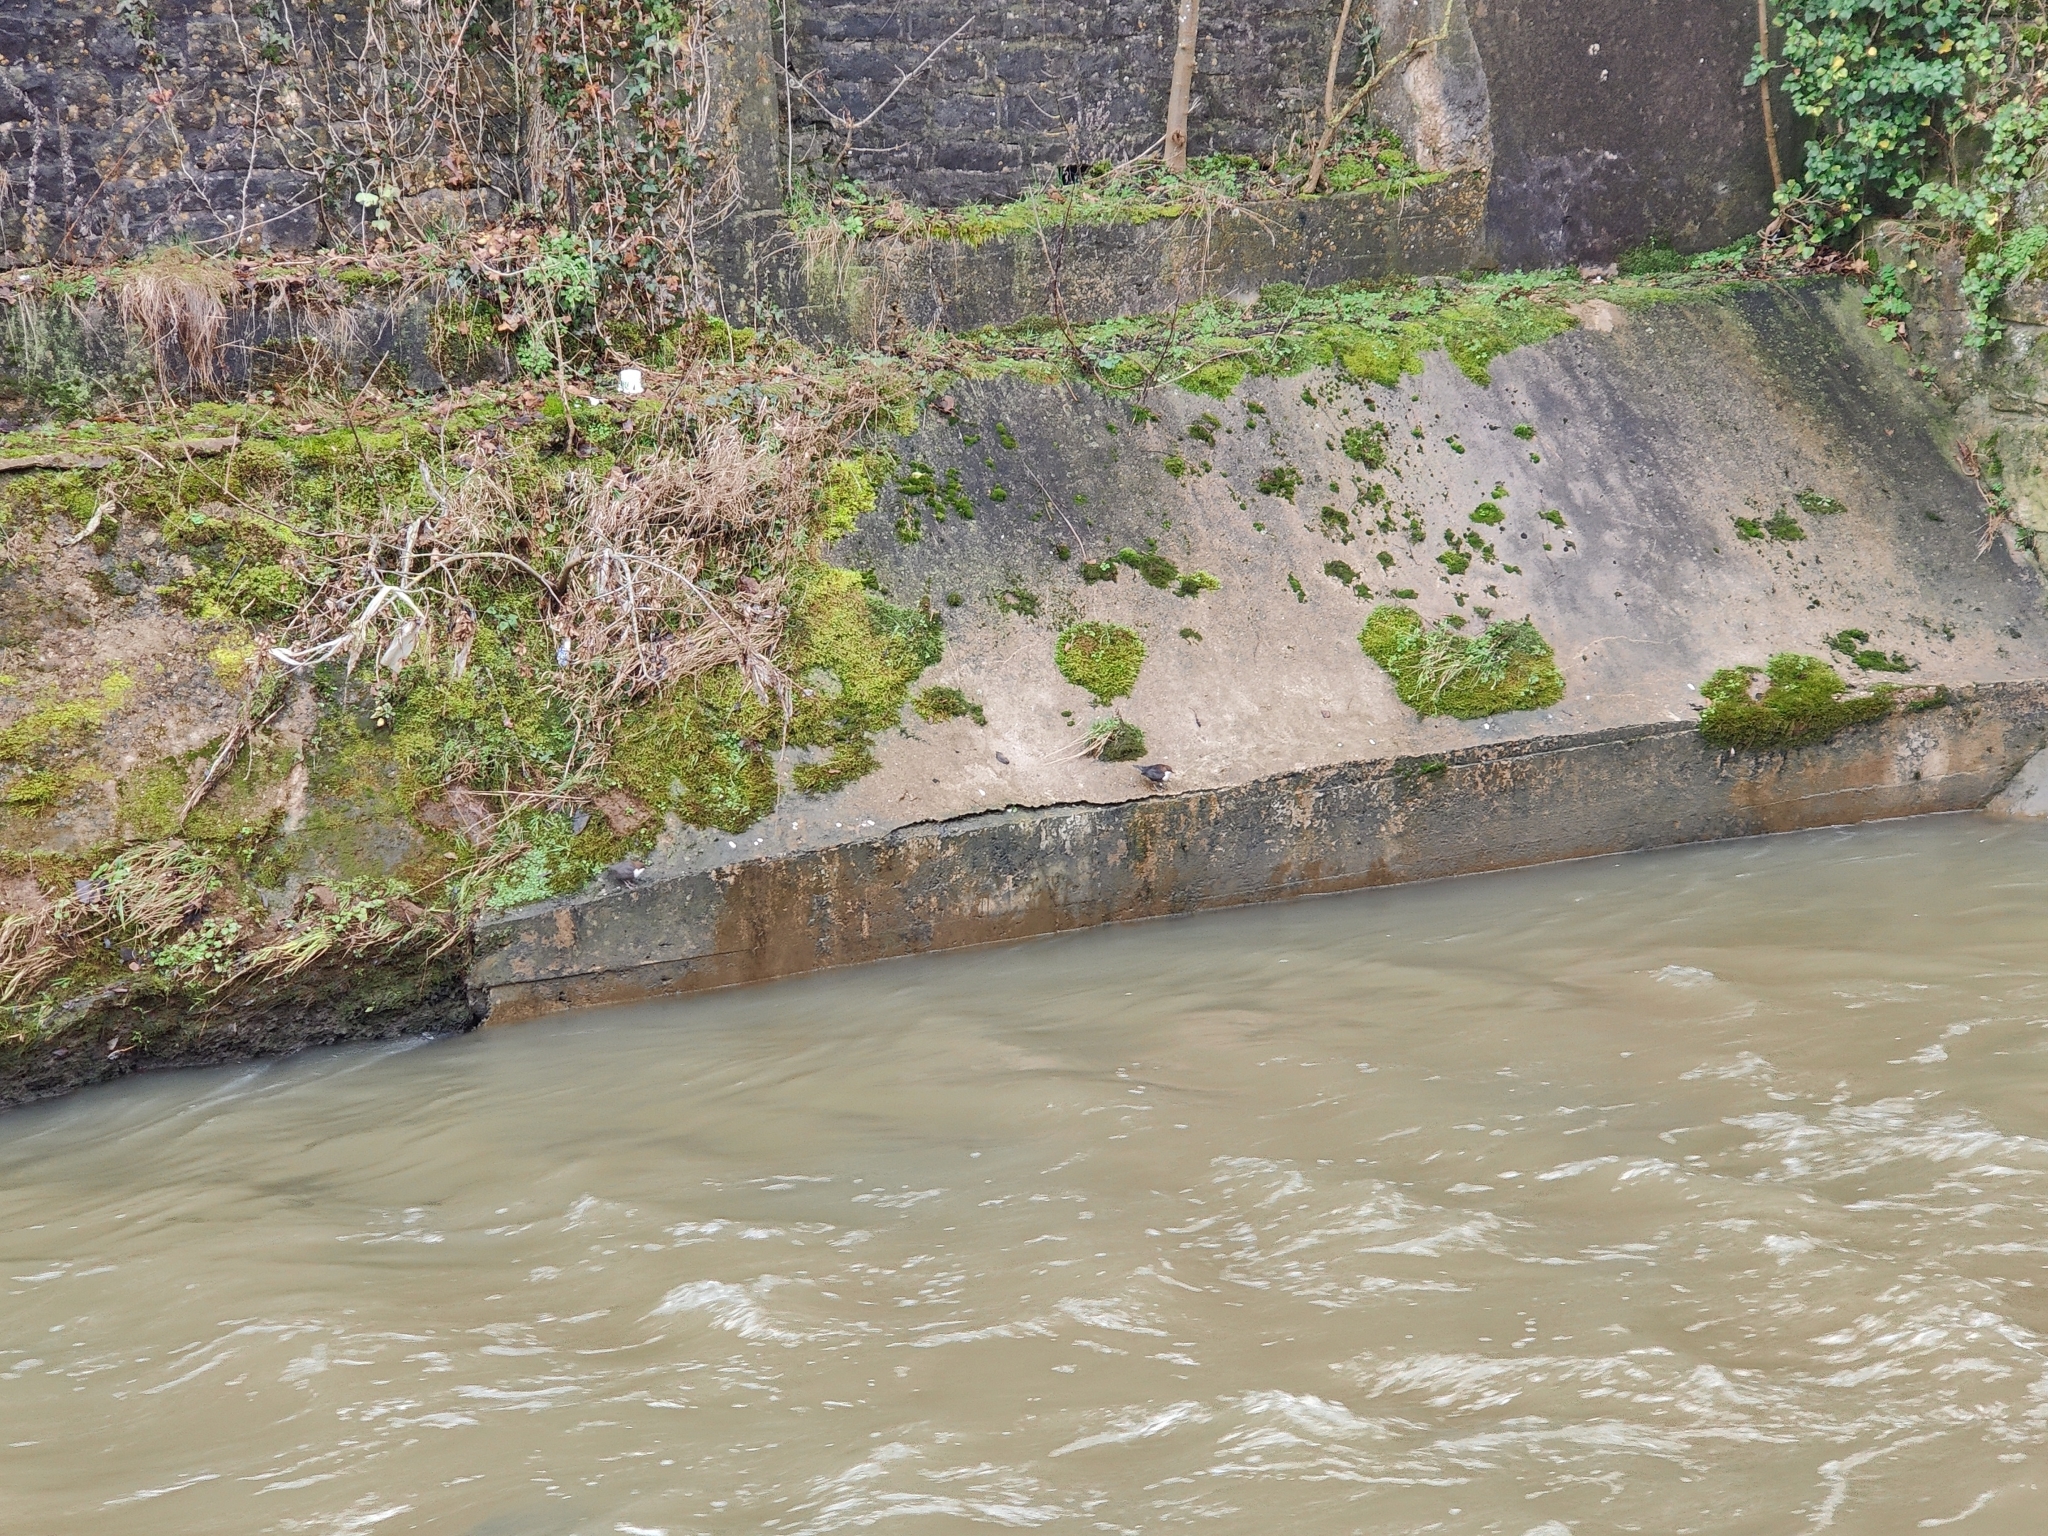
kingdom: Animalia
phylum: Chordata
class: Aves
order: Passeriformes
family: Cinclidae
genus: Cinclus
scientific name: Cinclus cinclus
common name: White-throated dipper
